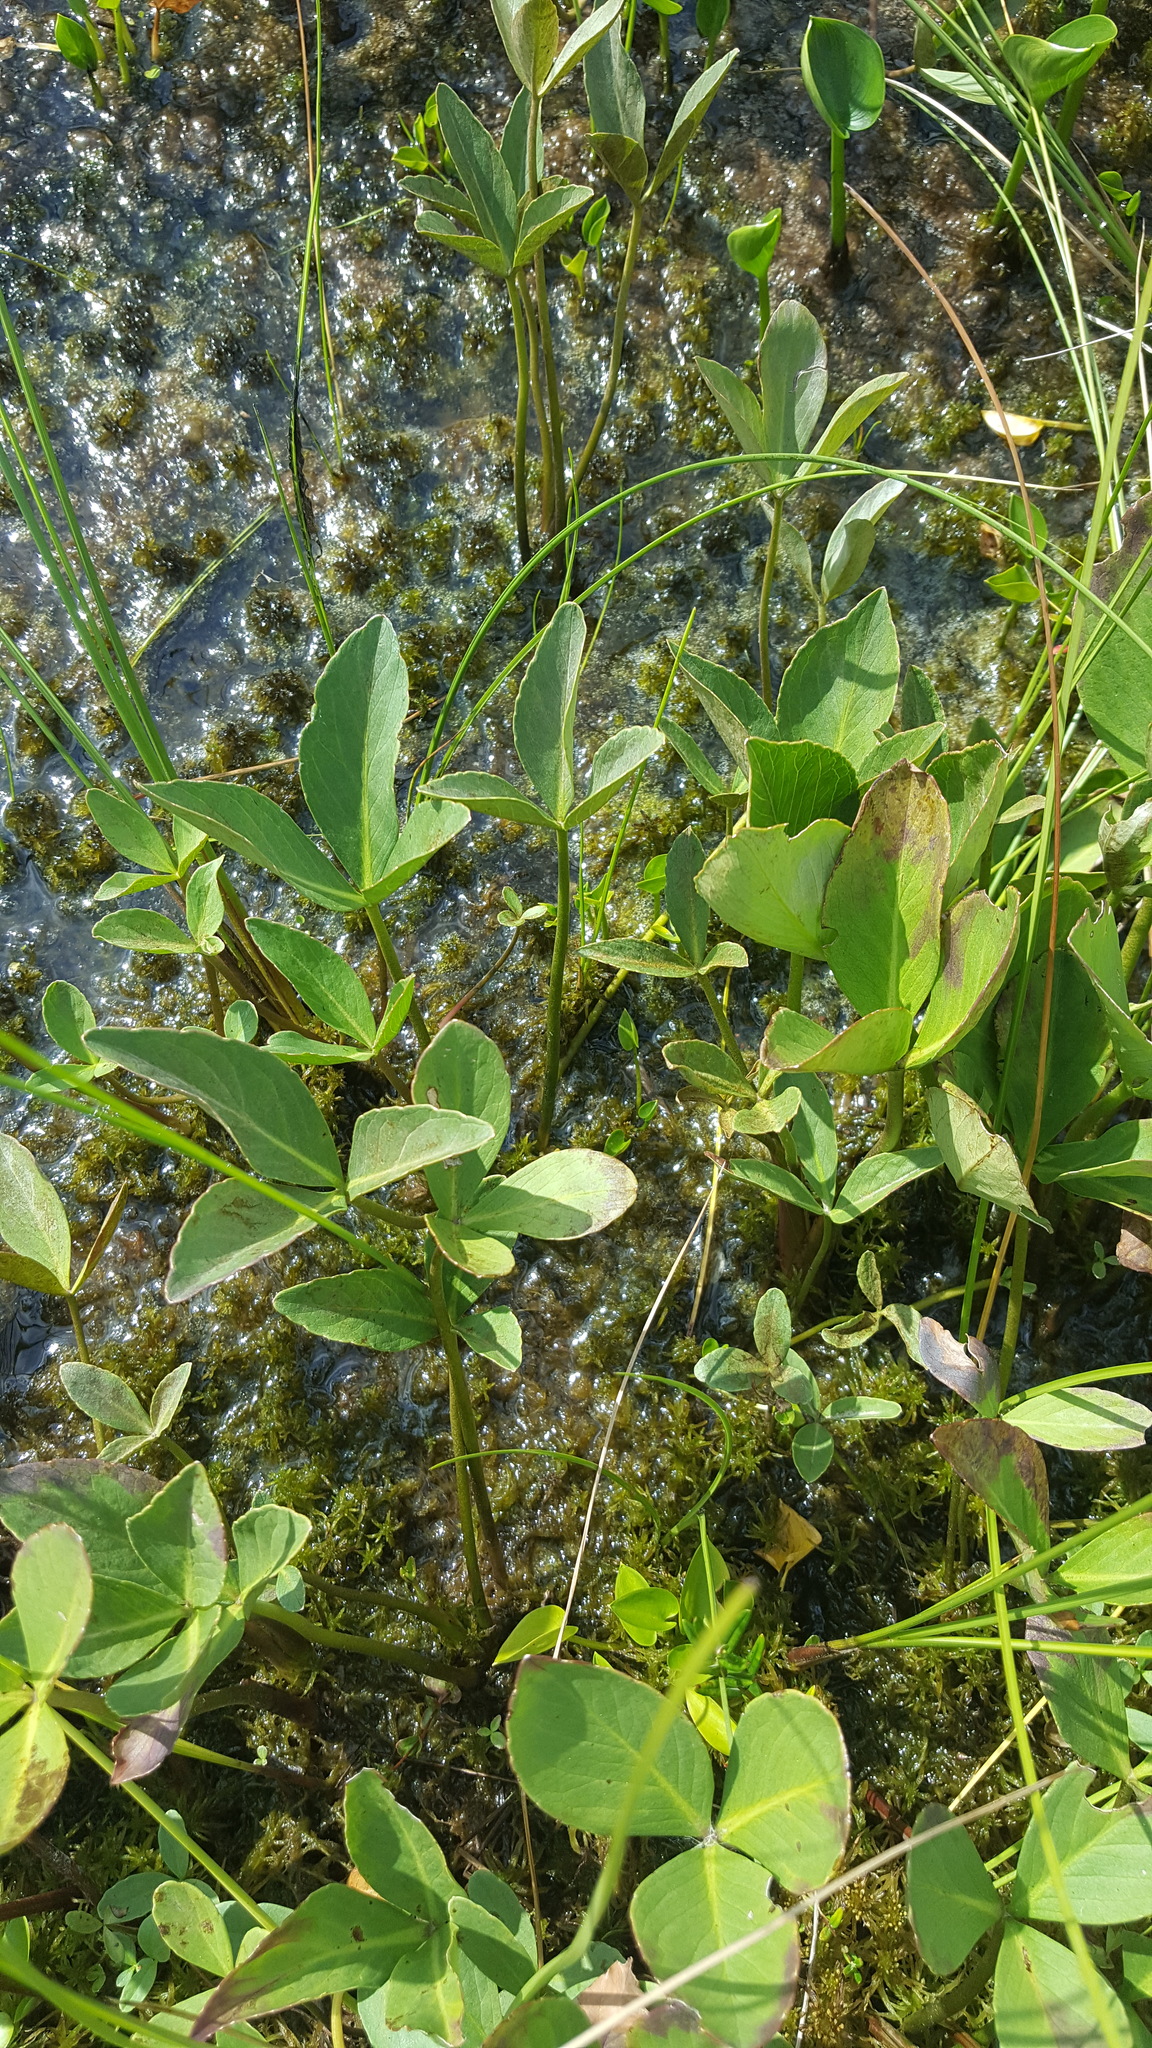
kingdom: Plantae
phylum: Tracheophyta
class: Magnoliopsida
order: Asterales
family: Menyanthaceae
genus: Menyanthes
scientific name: Menyanthes trifoliata
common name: Bogbean
